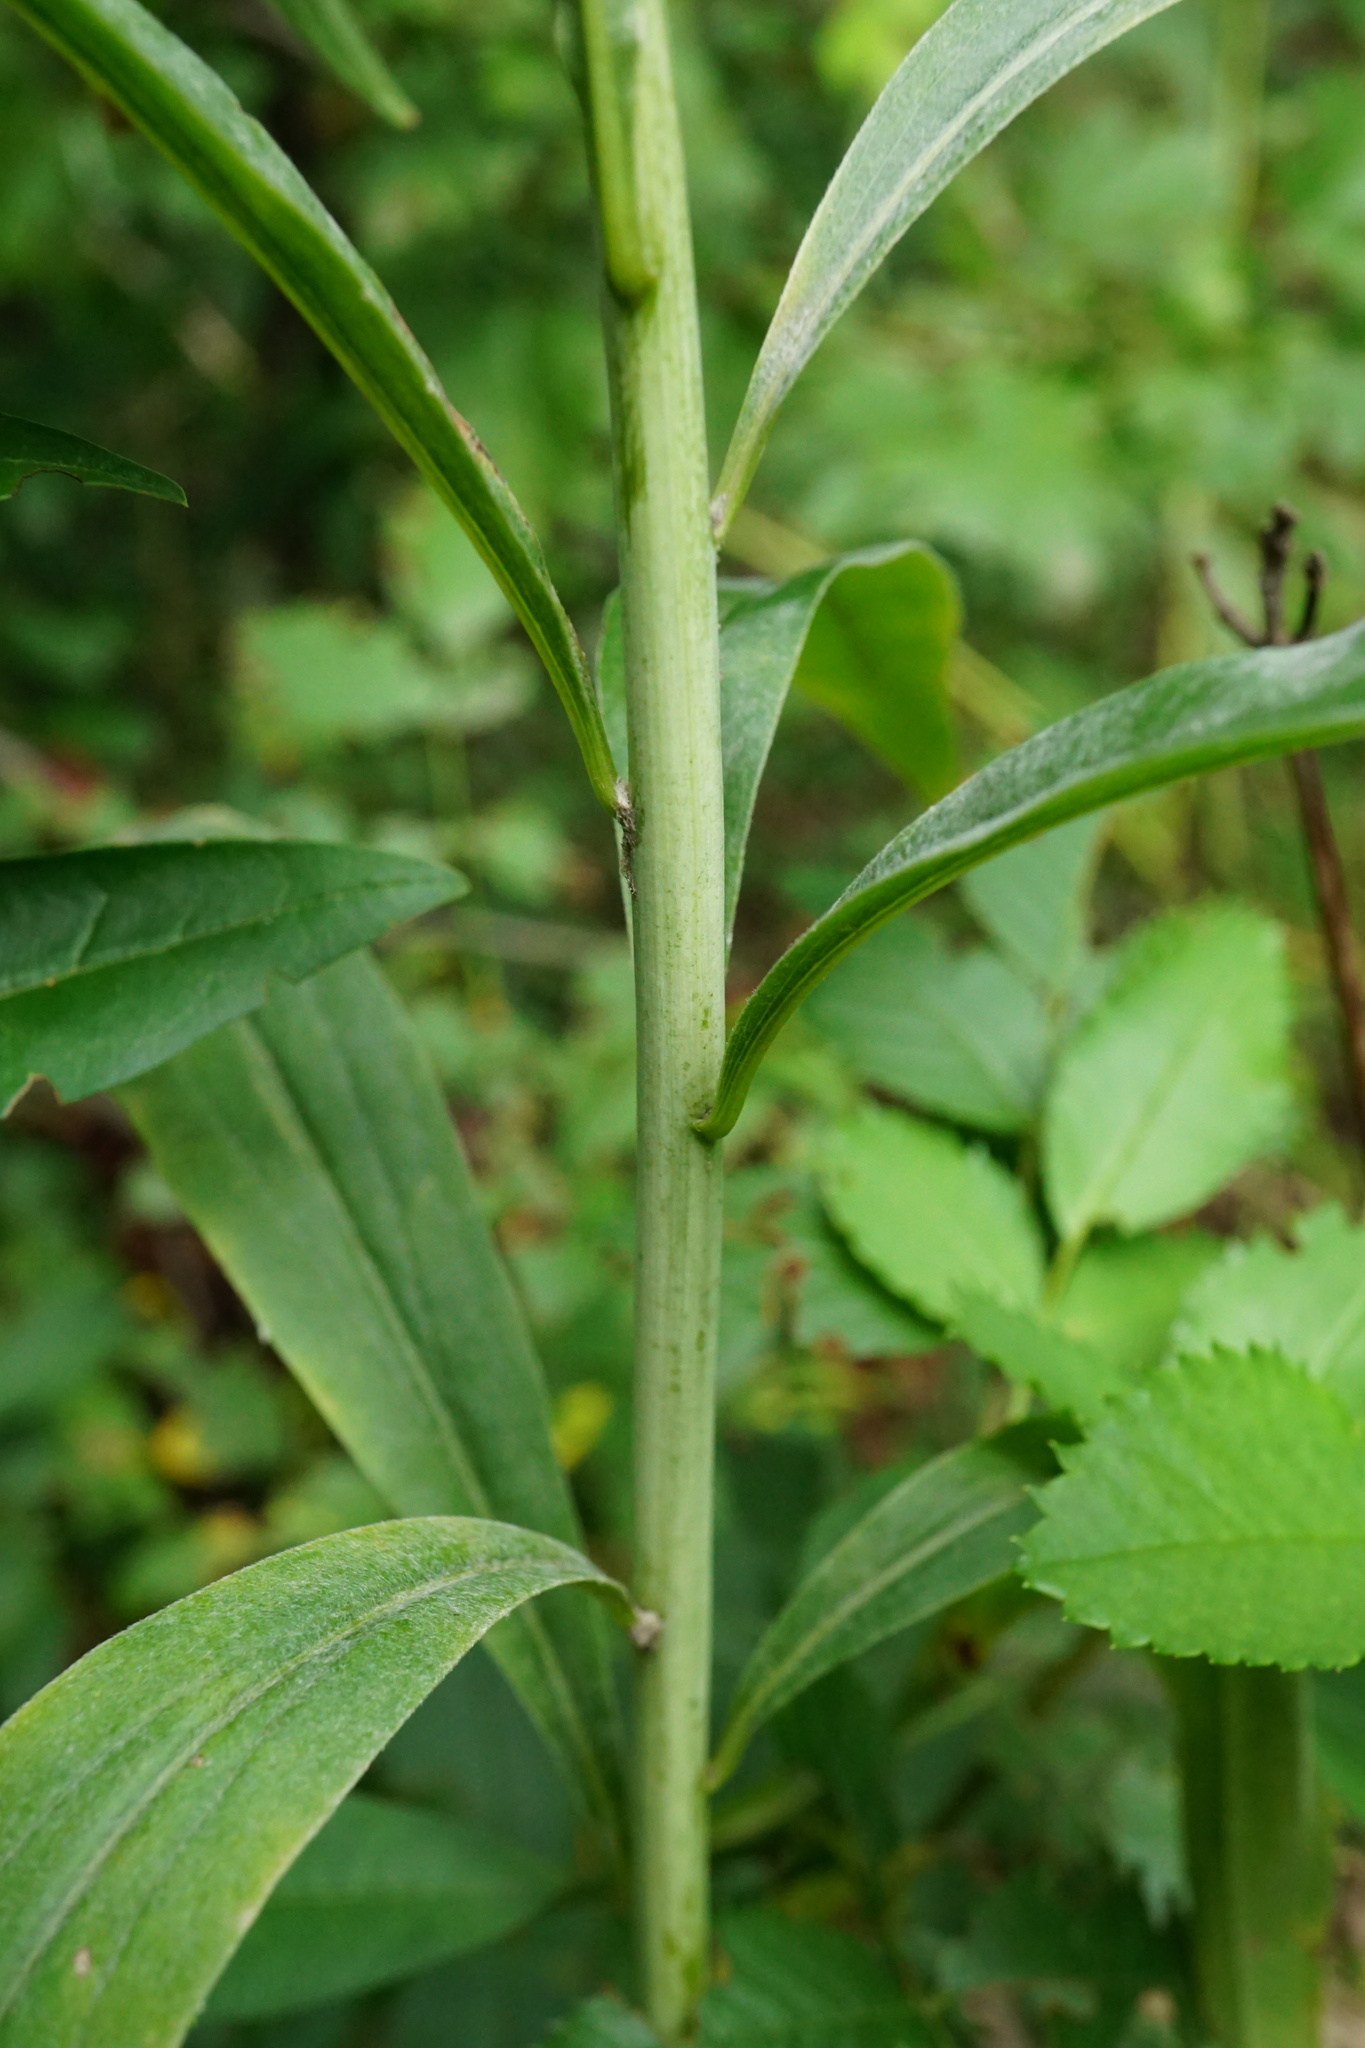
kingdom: Plantae
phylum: Tracheophyta
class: Magnoliopsida
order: Asterales
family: Asteraceae
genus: Solidago
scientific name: Solidago gigantea
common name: Giant goldenrod
